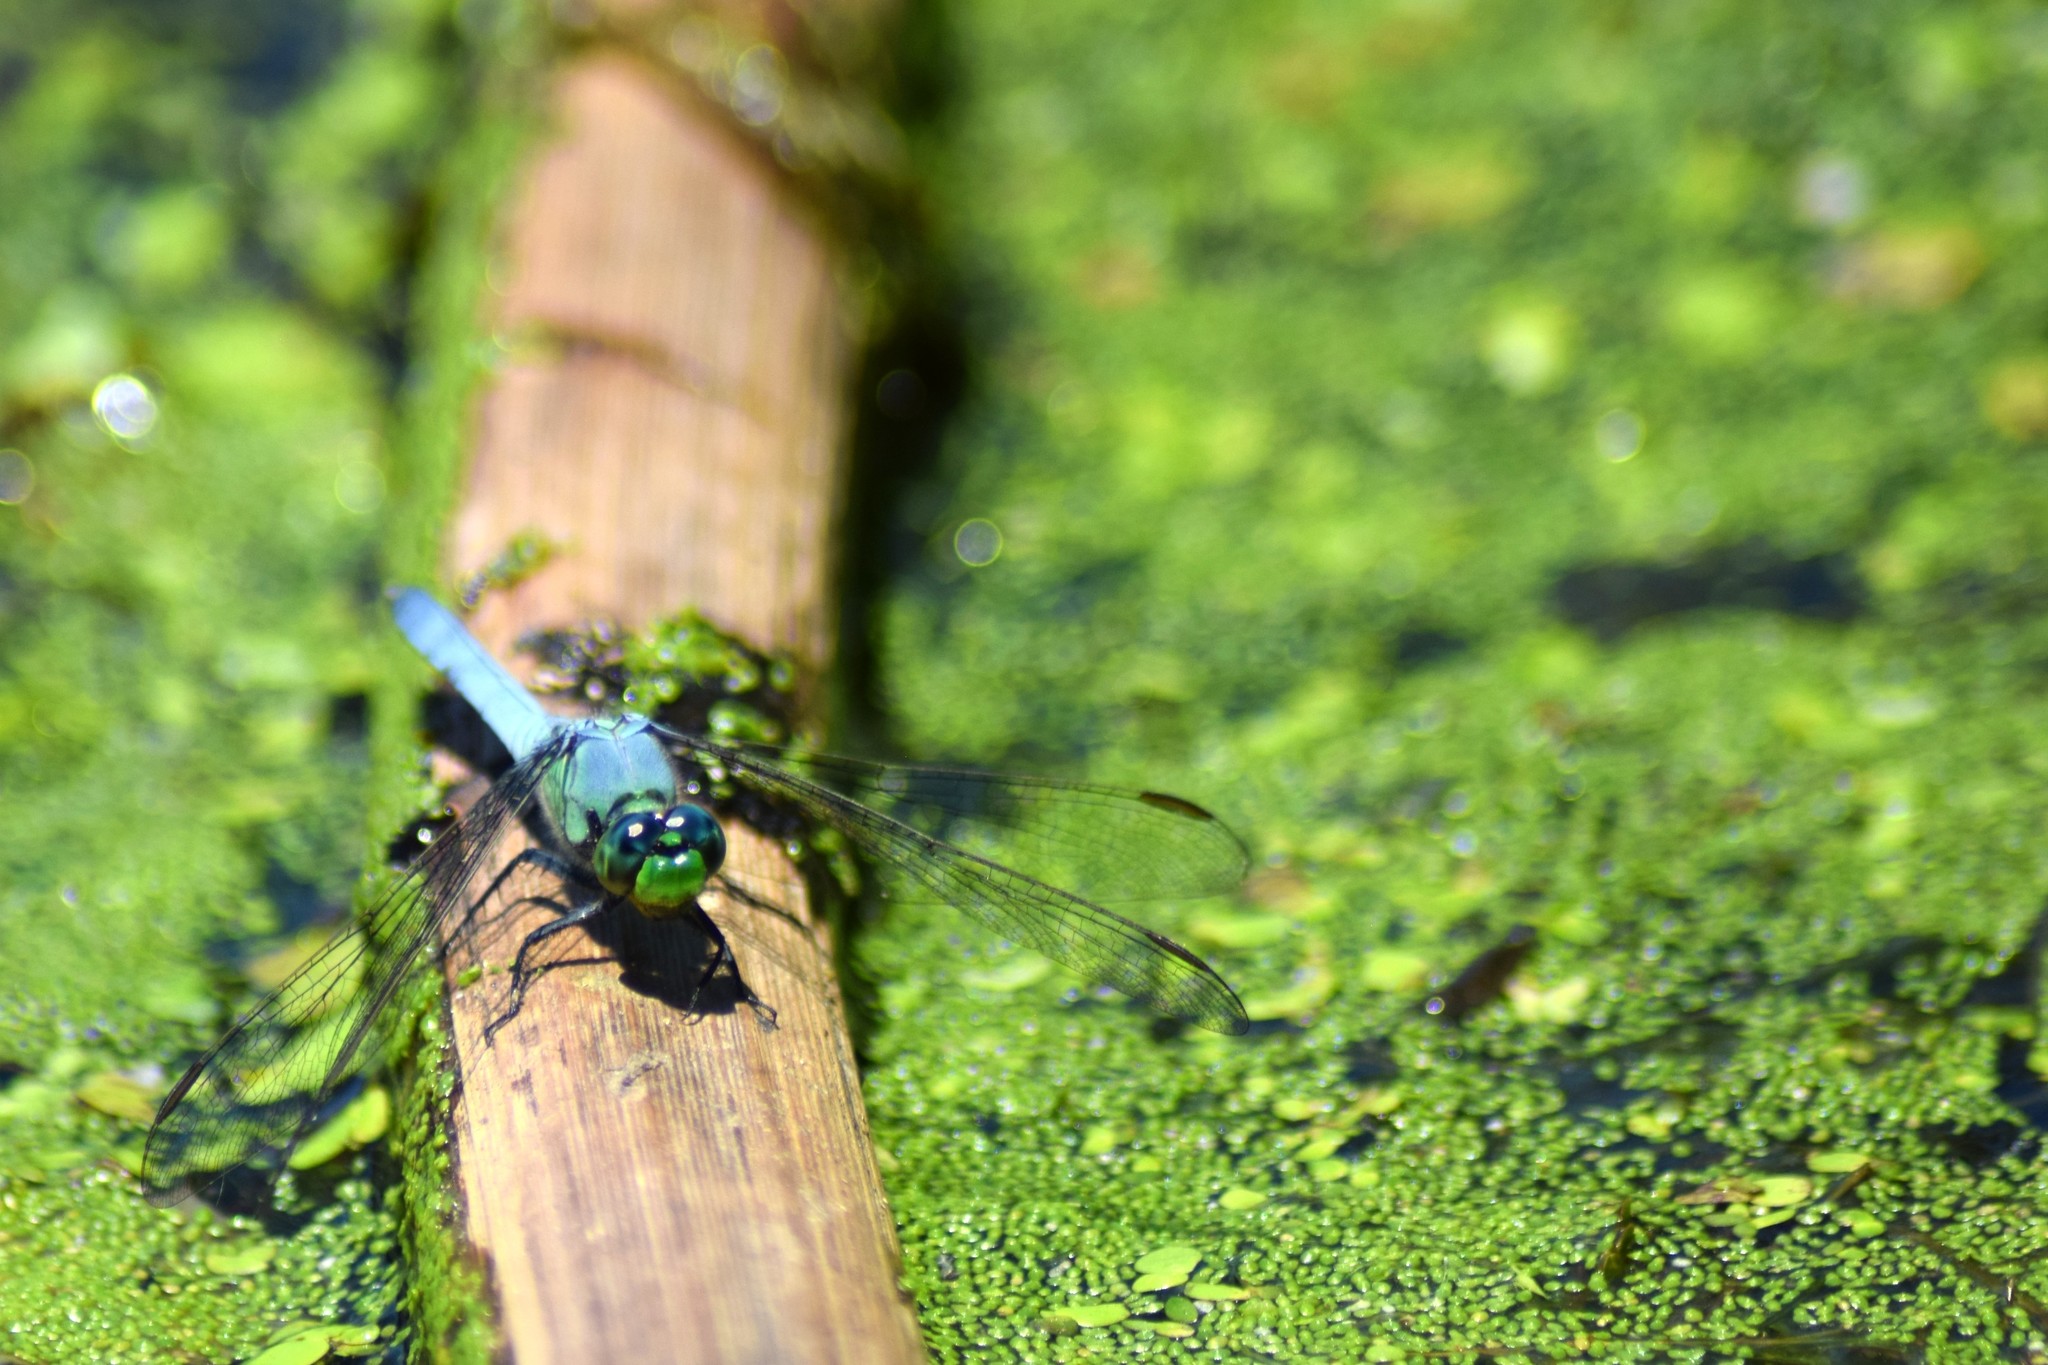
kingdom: Animalia
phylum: Arthropoda
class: Insecta
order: Odonata
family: Libellulidae
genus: Erythemis
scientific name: Erythemis simplicicollis
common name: Eastern pondhawk
